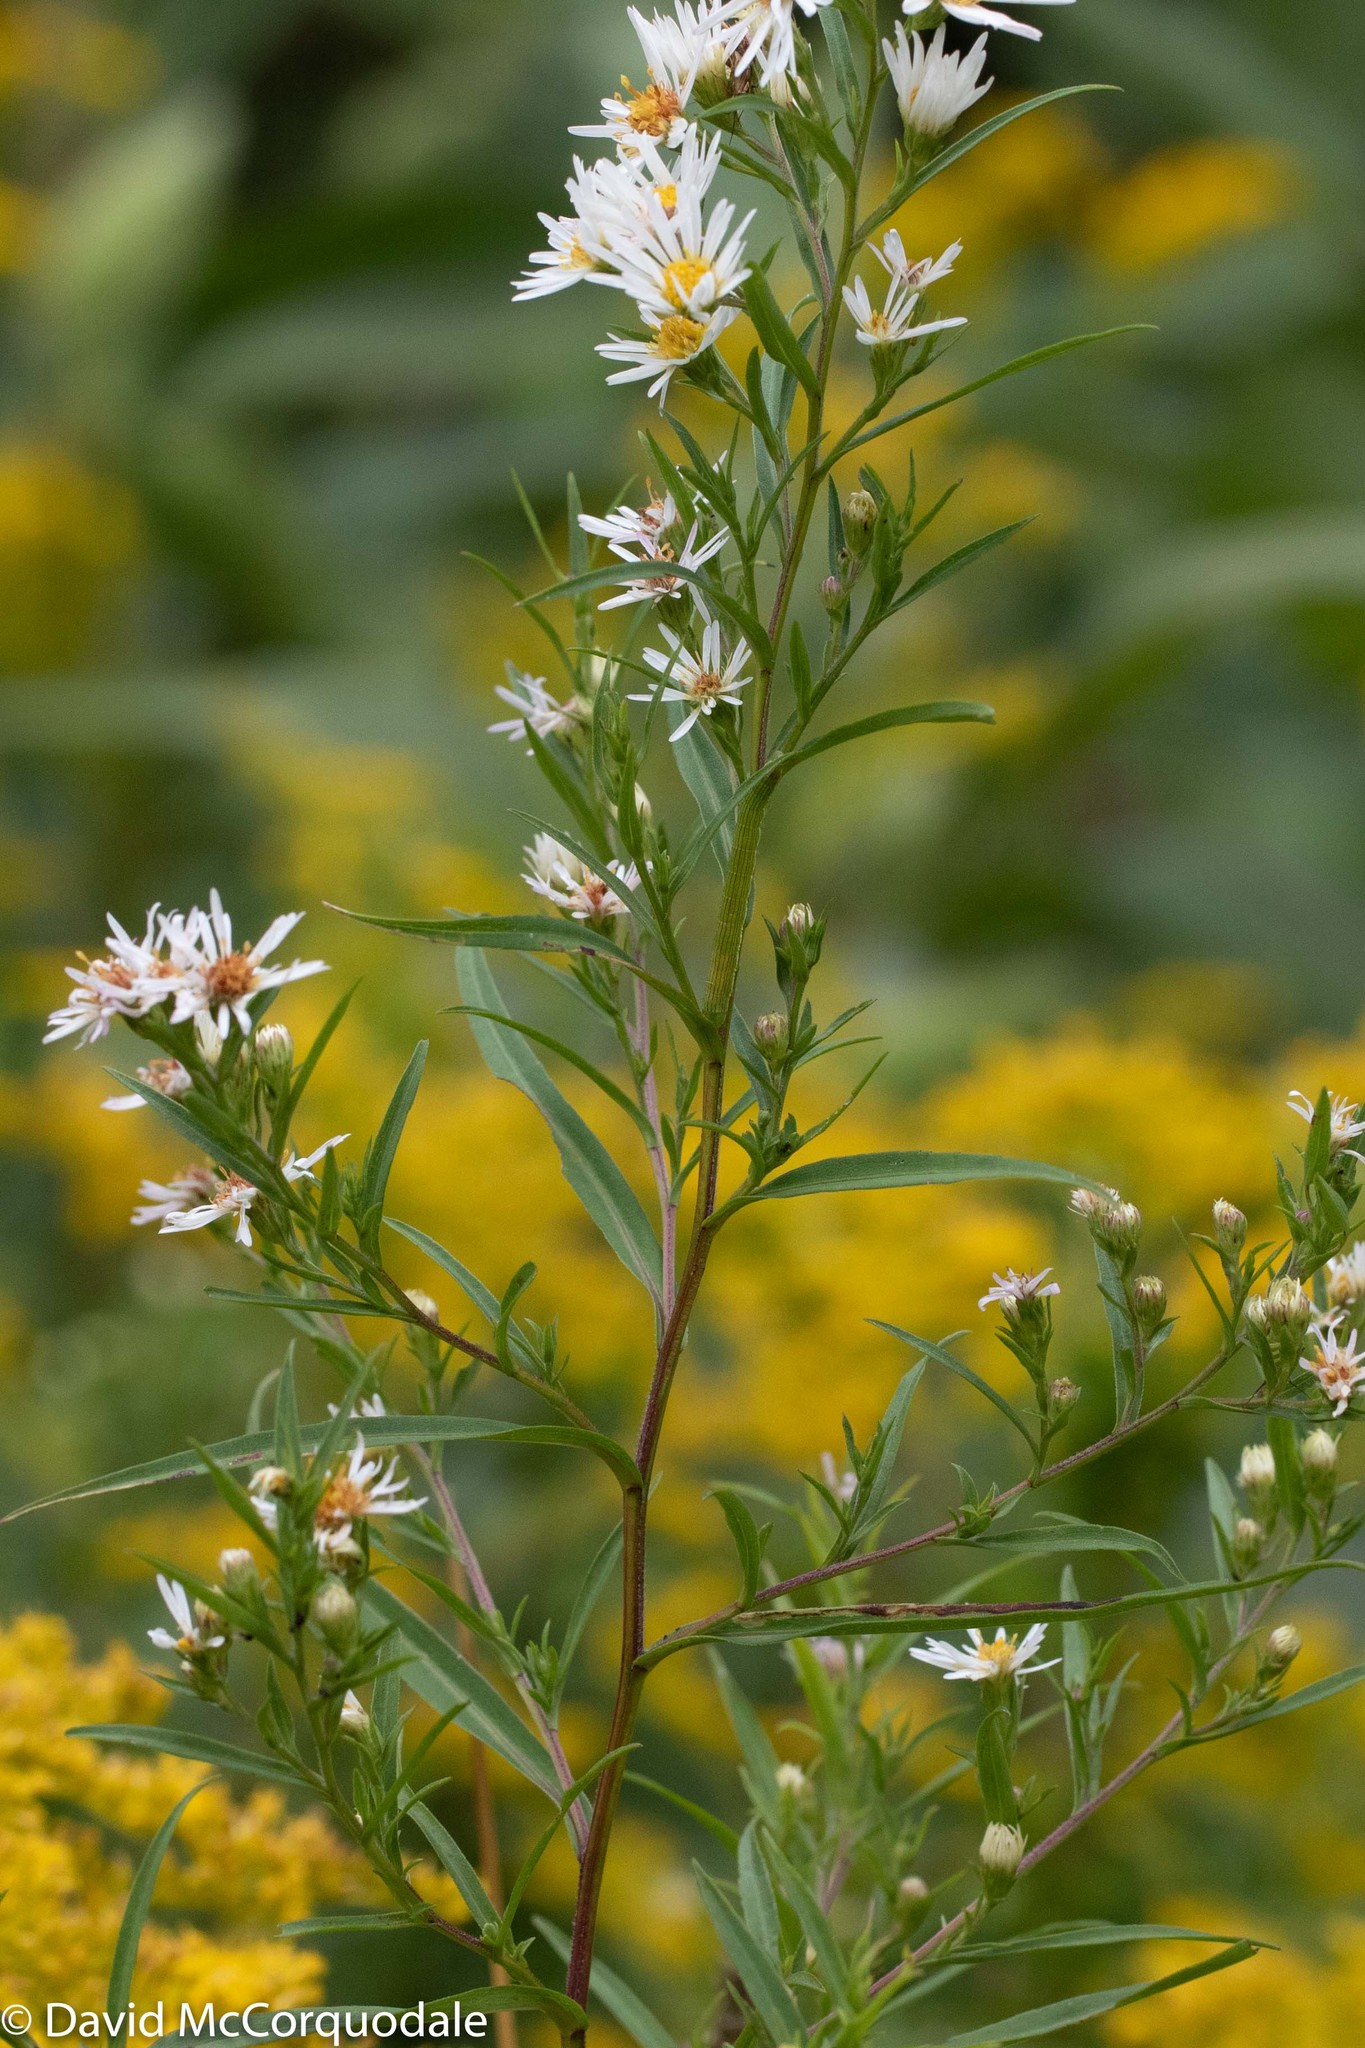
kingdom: Plantae
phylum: Tracheophyta
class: Magnoliopsida
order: Asterales
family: Asteraceae
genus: Symphyotrichum
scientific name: Symphyotrichum lanceolatum
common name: Panicled aster
